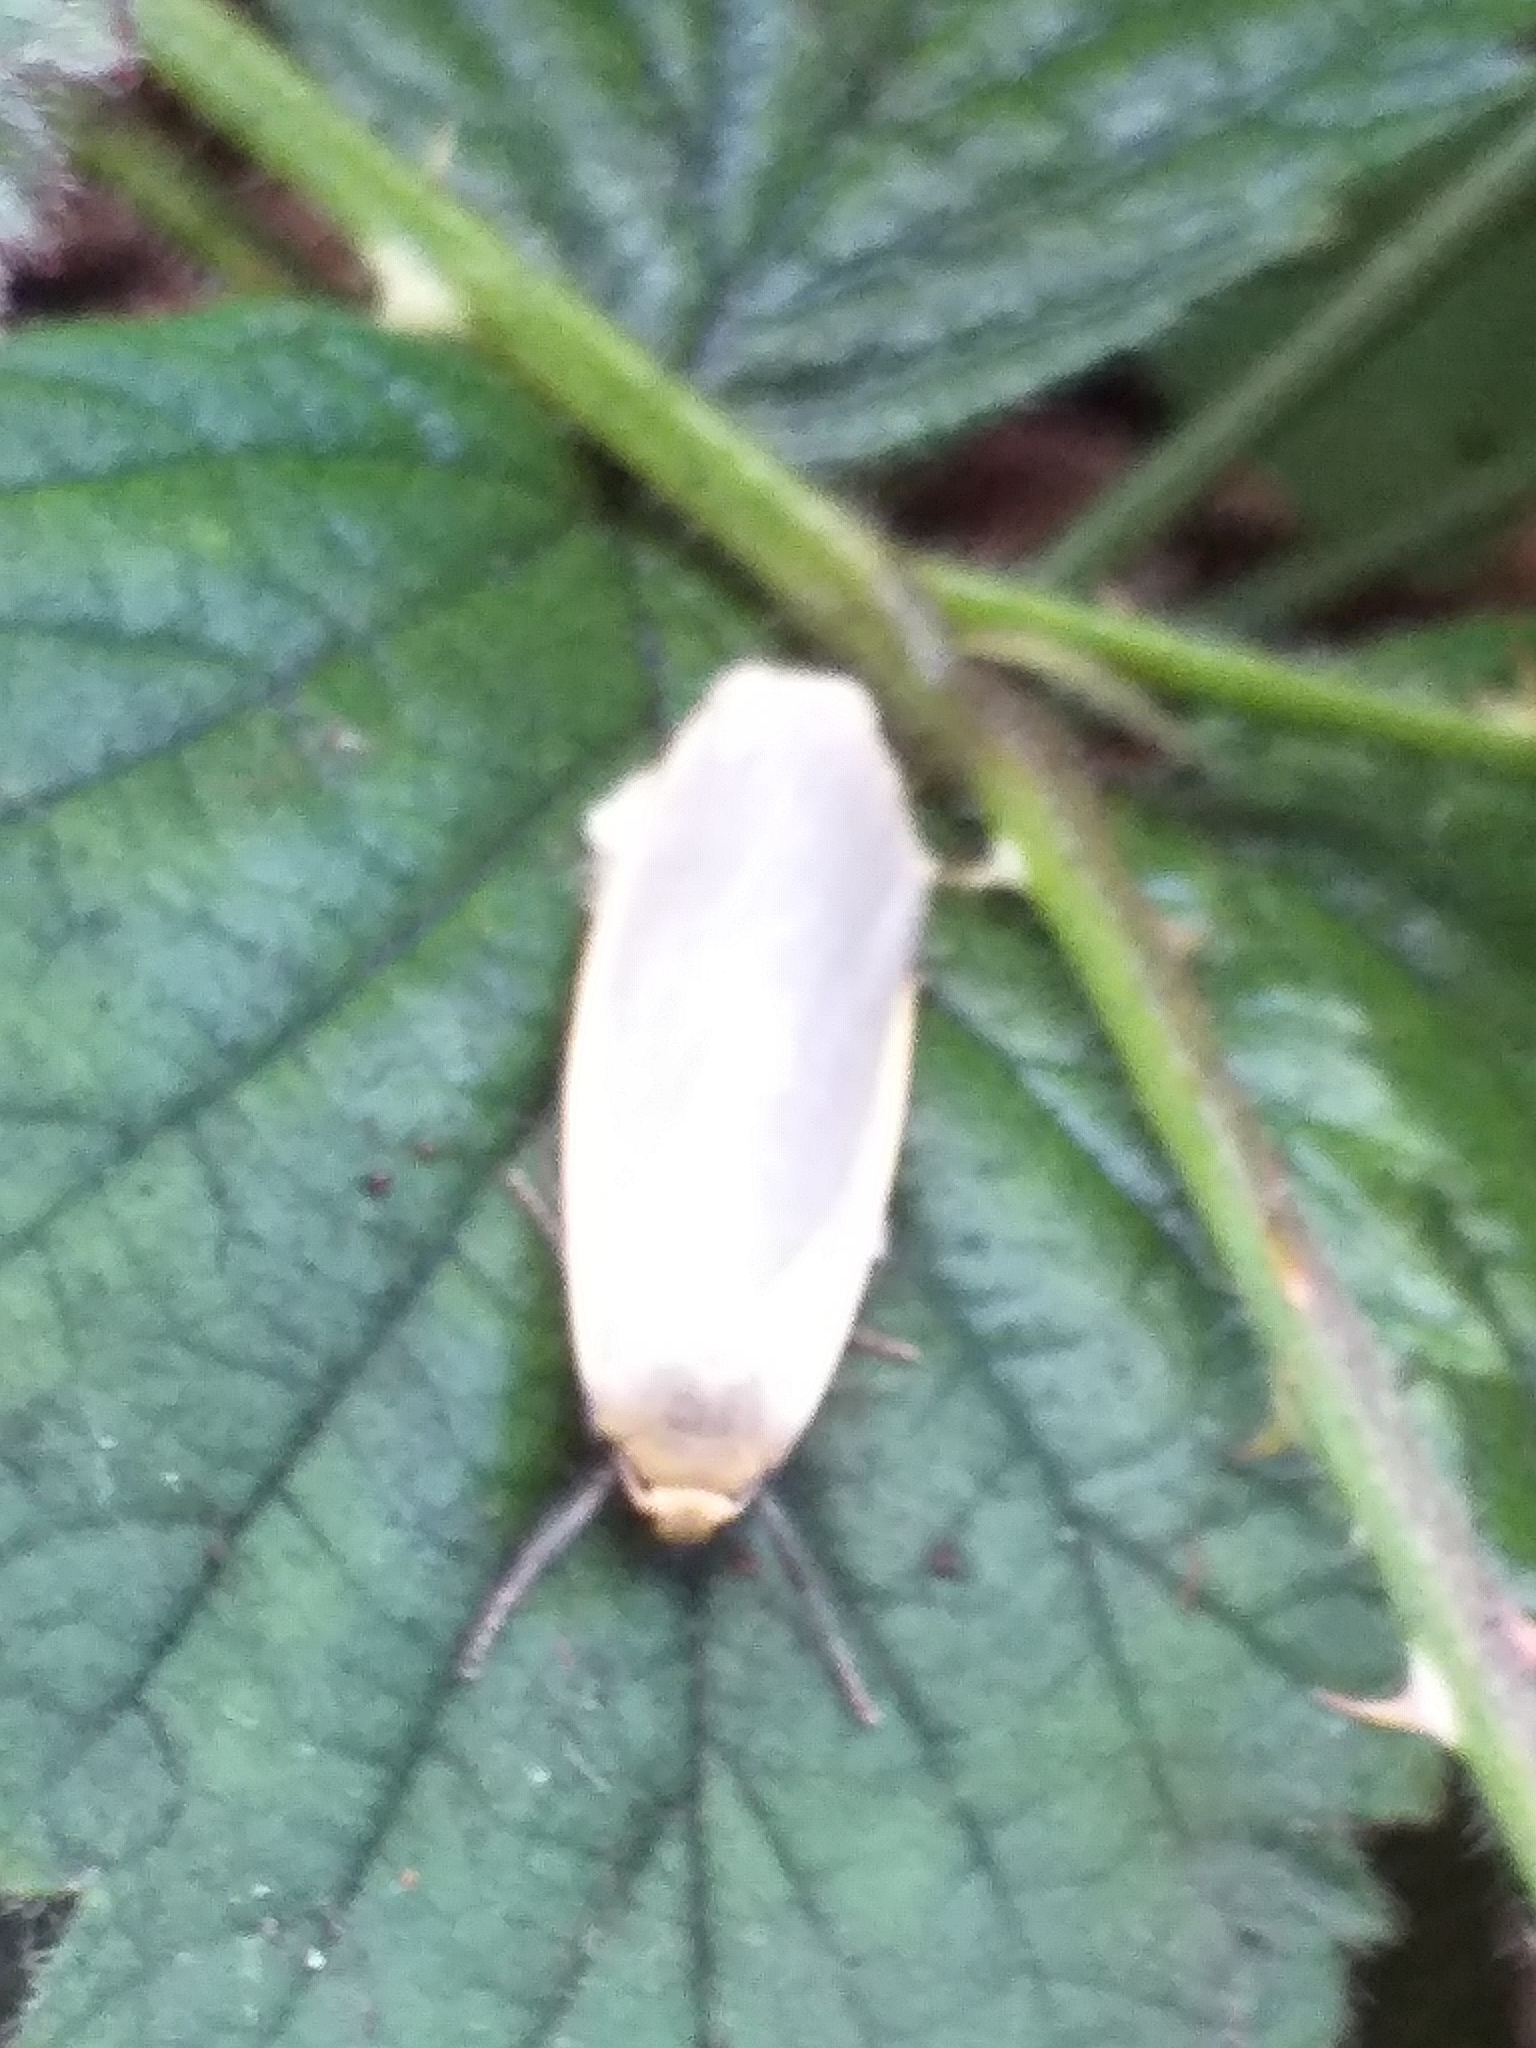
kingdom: Animalia
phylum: Arthropoda
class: Insecta
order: Lepidoptera
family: Erebidae
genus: Collita
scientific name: Collita griseola
